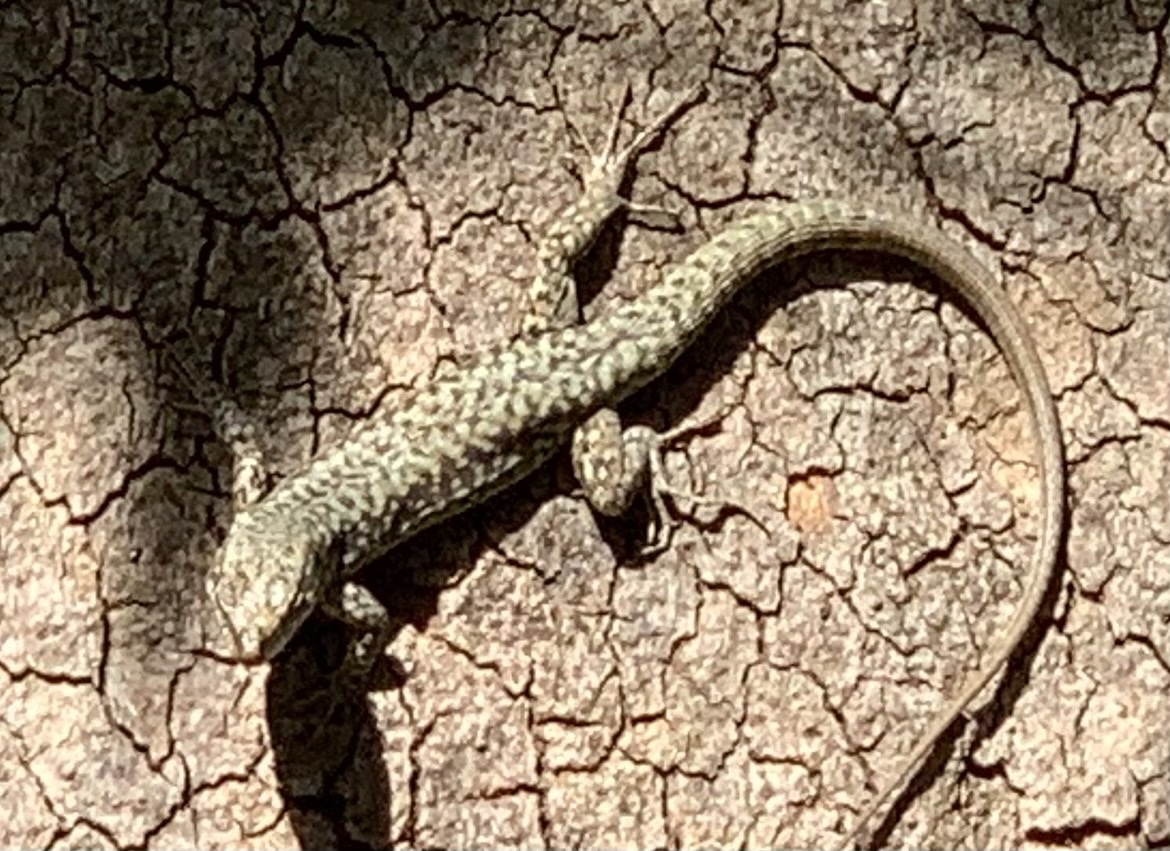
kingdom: Animalia
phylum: Chordata
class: Squamata
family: Lacertidae
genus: Podarcis
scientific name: Podarcis muralis
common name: Common wall lizard
